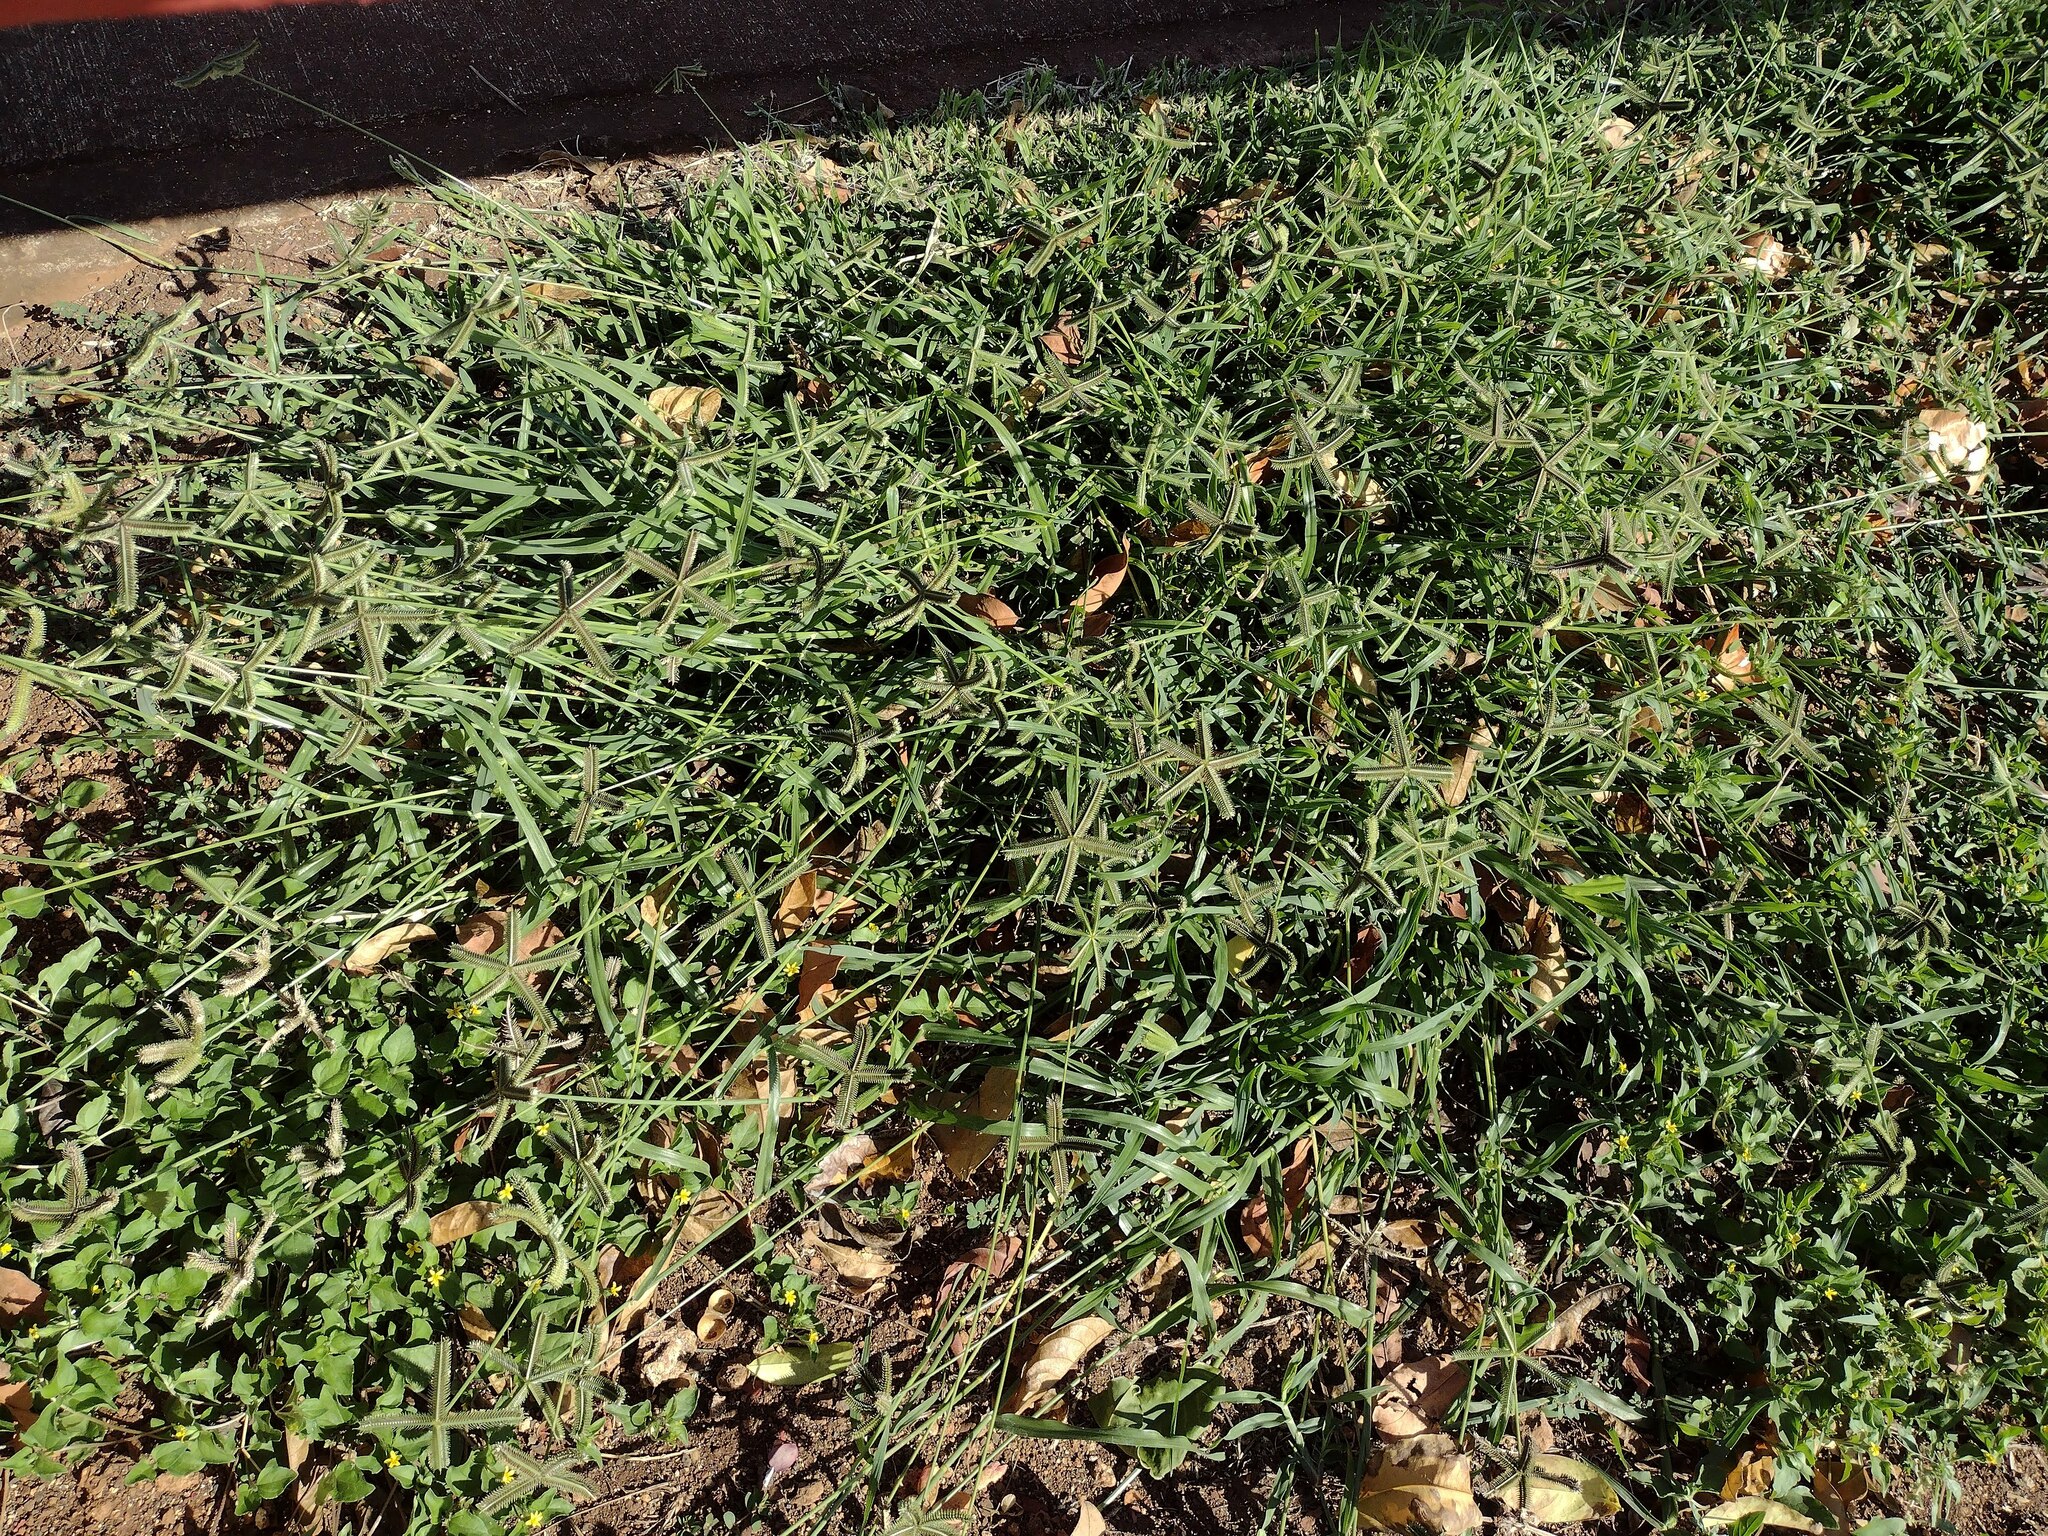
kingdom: Plantae
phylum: Tracheophyta
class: Liliopsida
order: Poales
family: Poaceae
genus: Dactyloctenium
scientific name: Dactyloctenium aegyptium
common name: Egyptian grass
